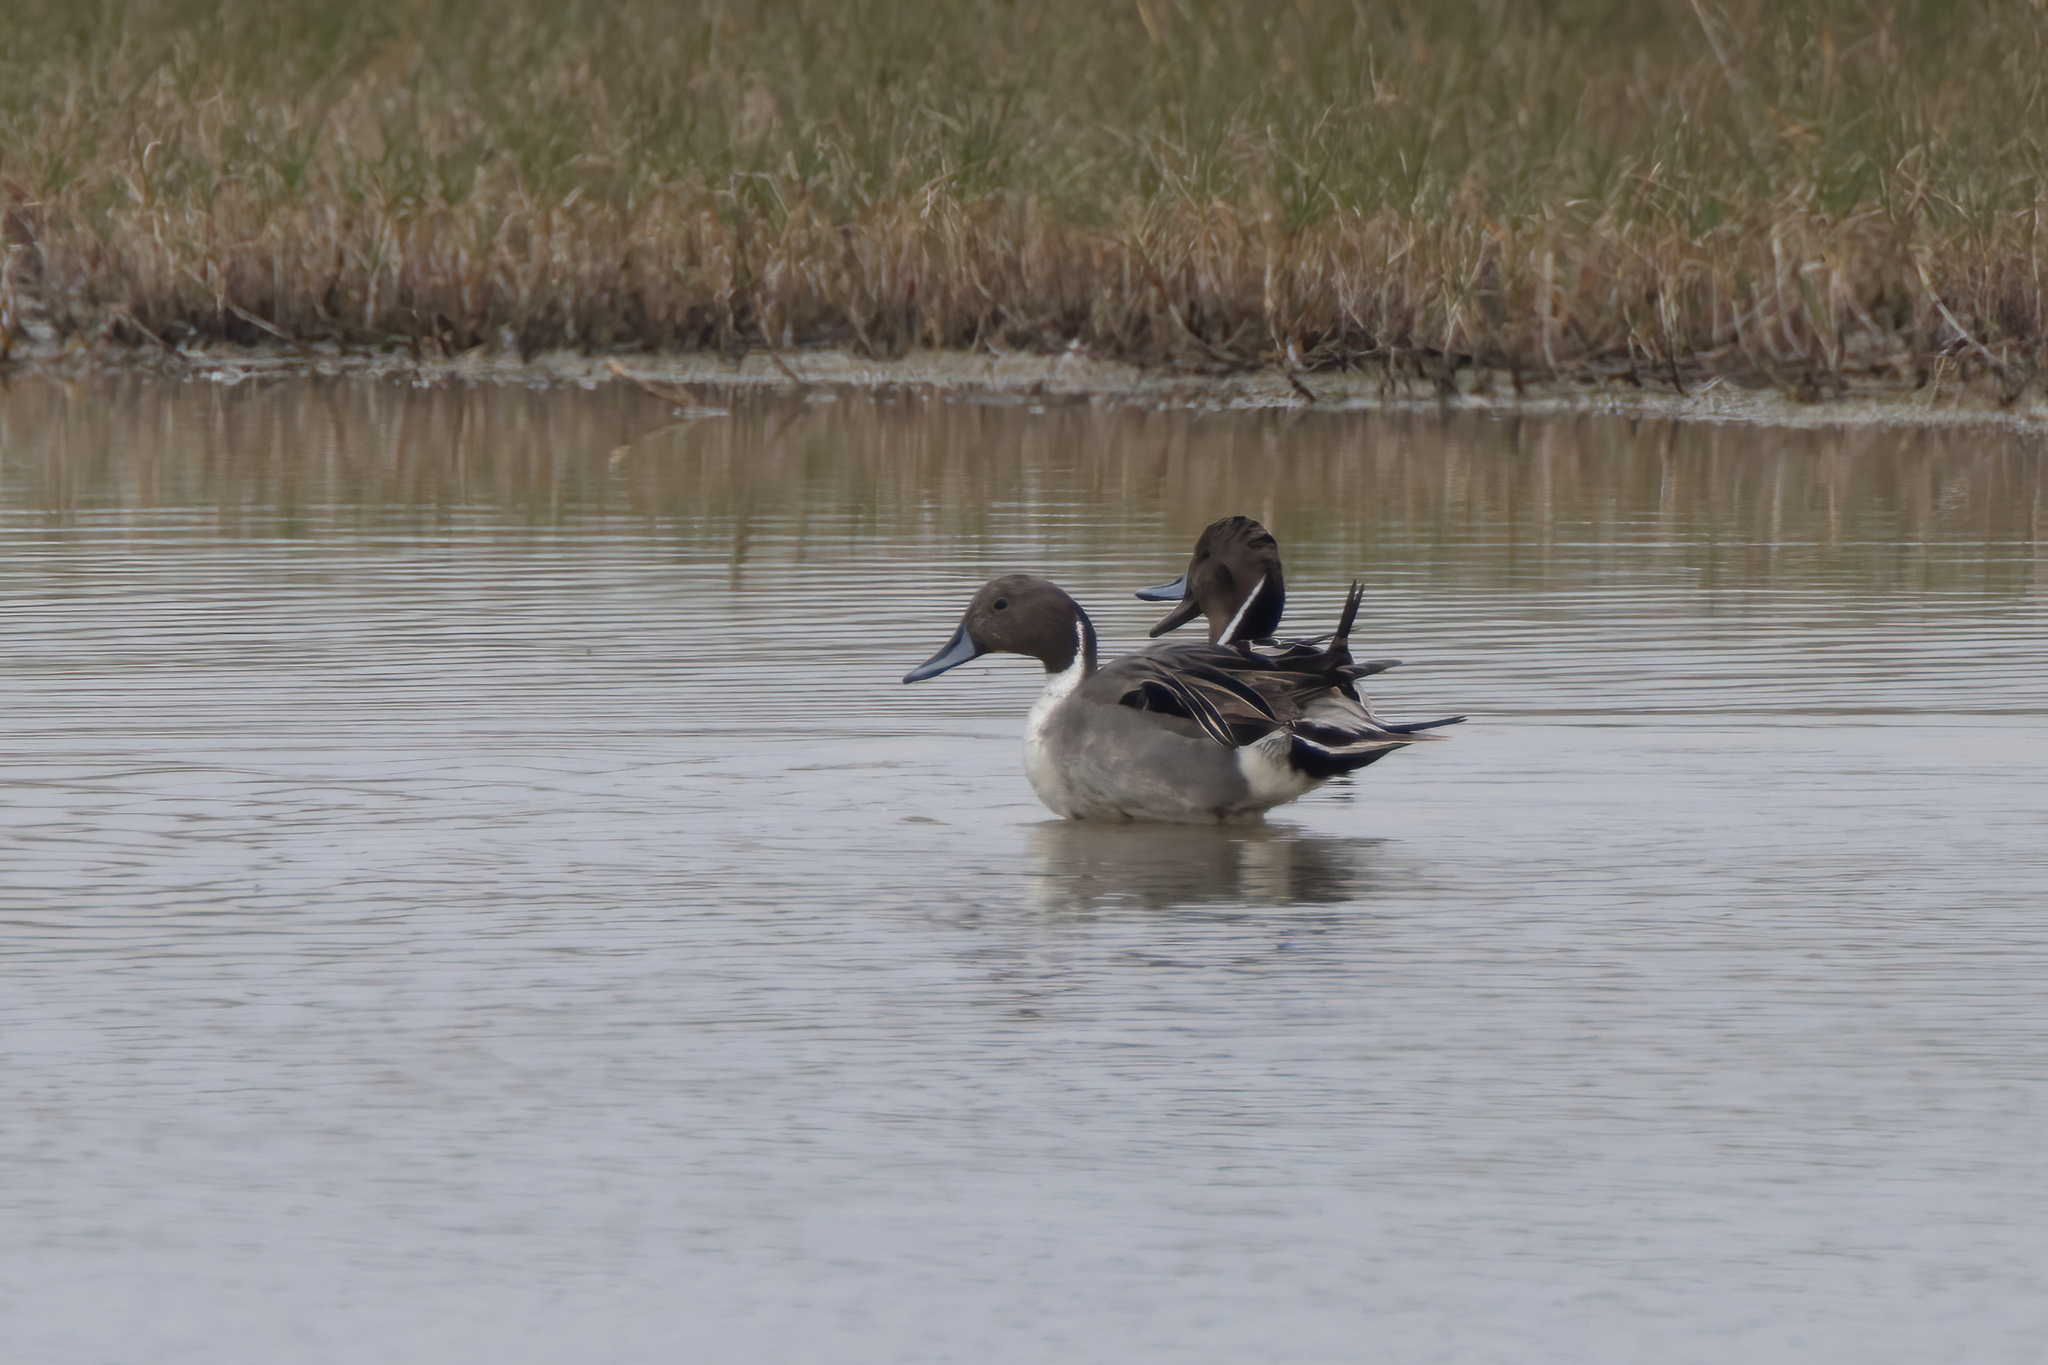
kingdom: Animalia
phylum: Chordata
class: Aves
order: Anseriformes
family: Anatidae
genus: Anas
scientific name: Anas acuta
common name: Northern pintail
